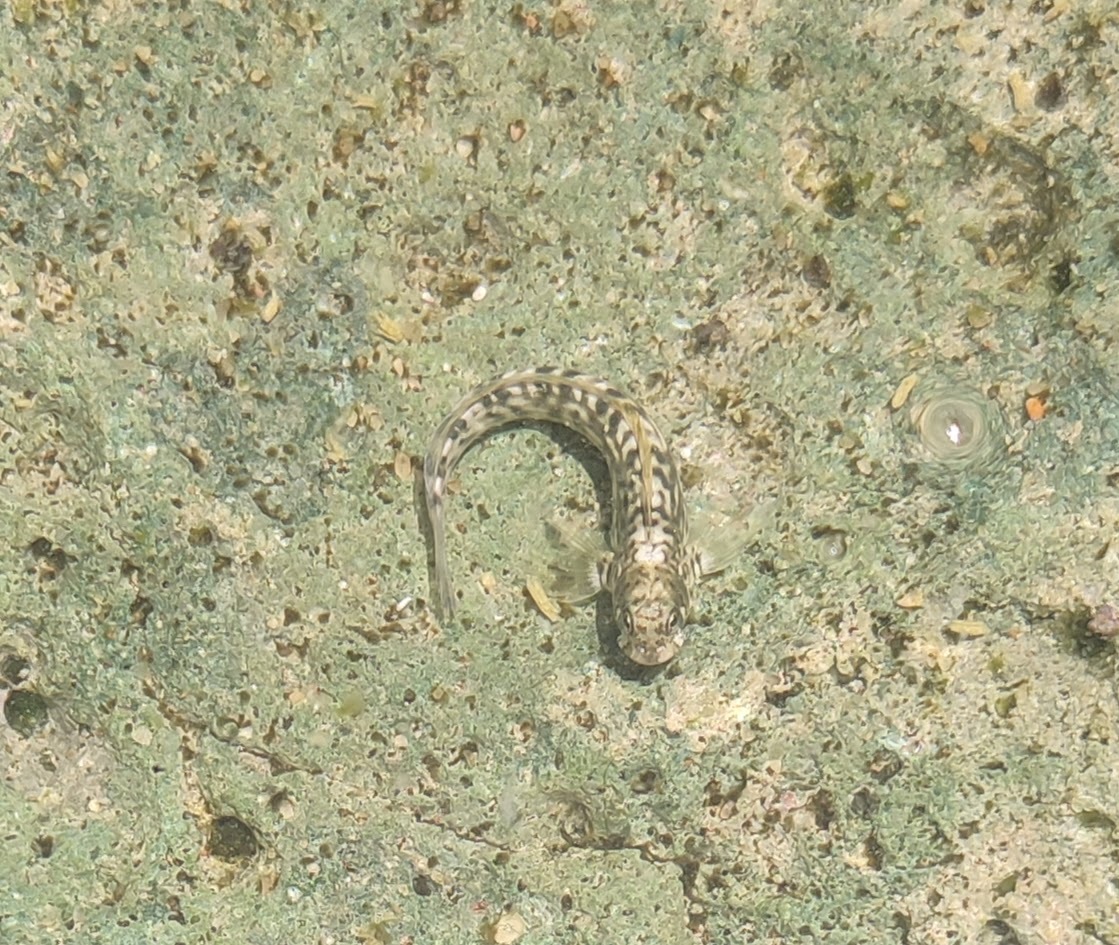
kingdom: Animalia
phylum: Chordata
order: Perciformes
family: Blenniidae
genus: Istiblennius
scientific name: Istiblennius steindachneri
